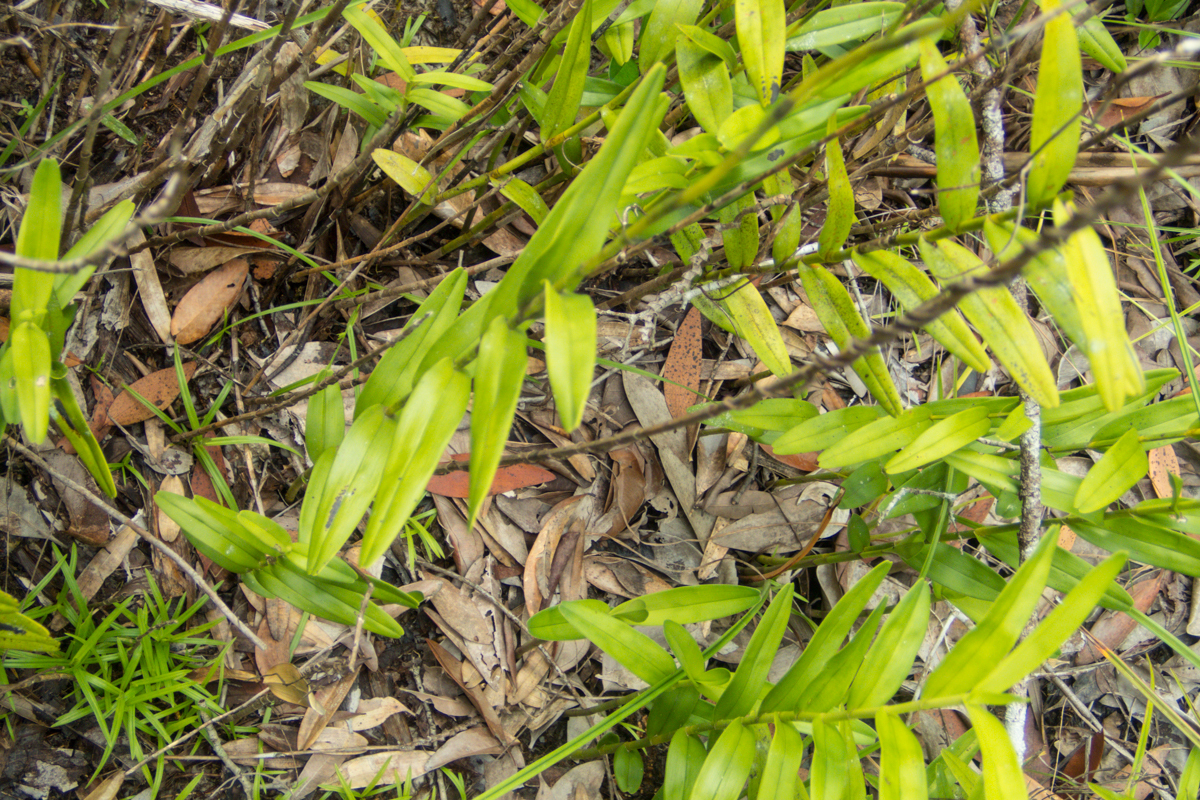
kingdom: Plantae
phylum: Tracheophyta
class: Liliopsida
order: Asparagales
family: Orchidaceae
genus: Bromheadia
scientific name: Bromheadia finlaysoniana
